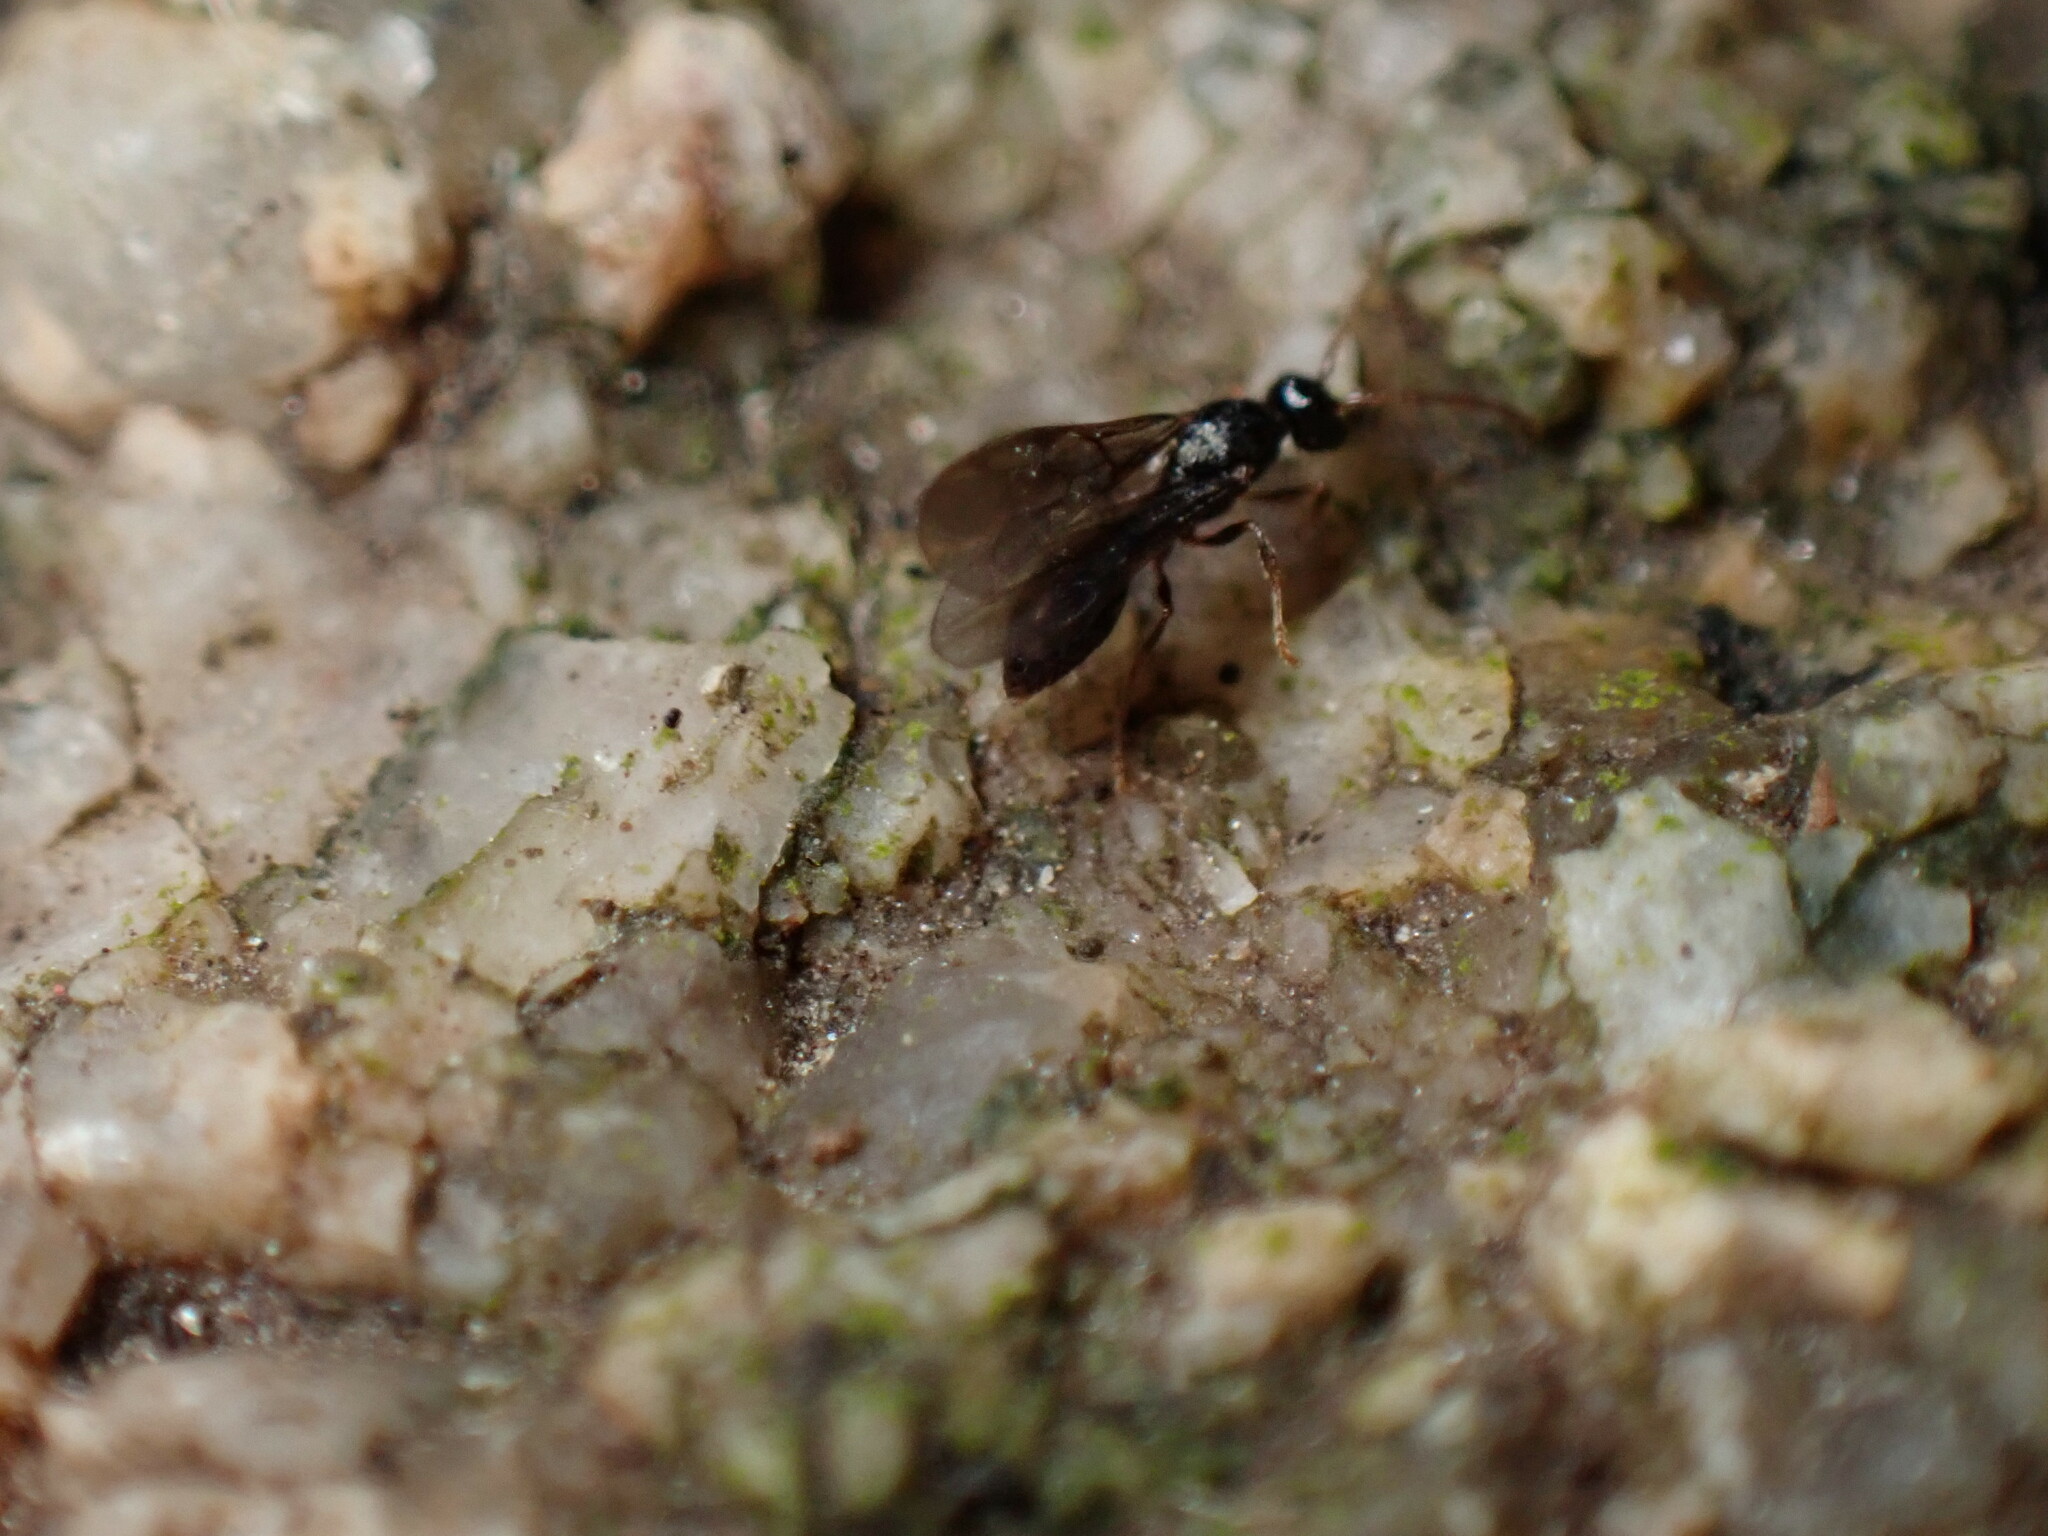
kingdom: Animalia
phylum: Arthropoda
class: Insecta
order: Hymenoptera
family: Formicidae
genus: Myrmecina
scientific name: Myrmecina graminicola
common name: Grass ant
